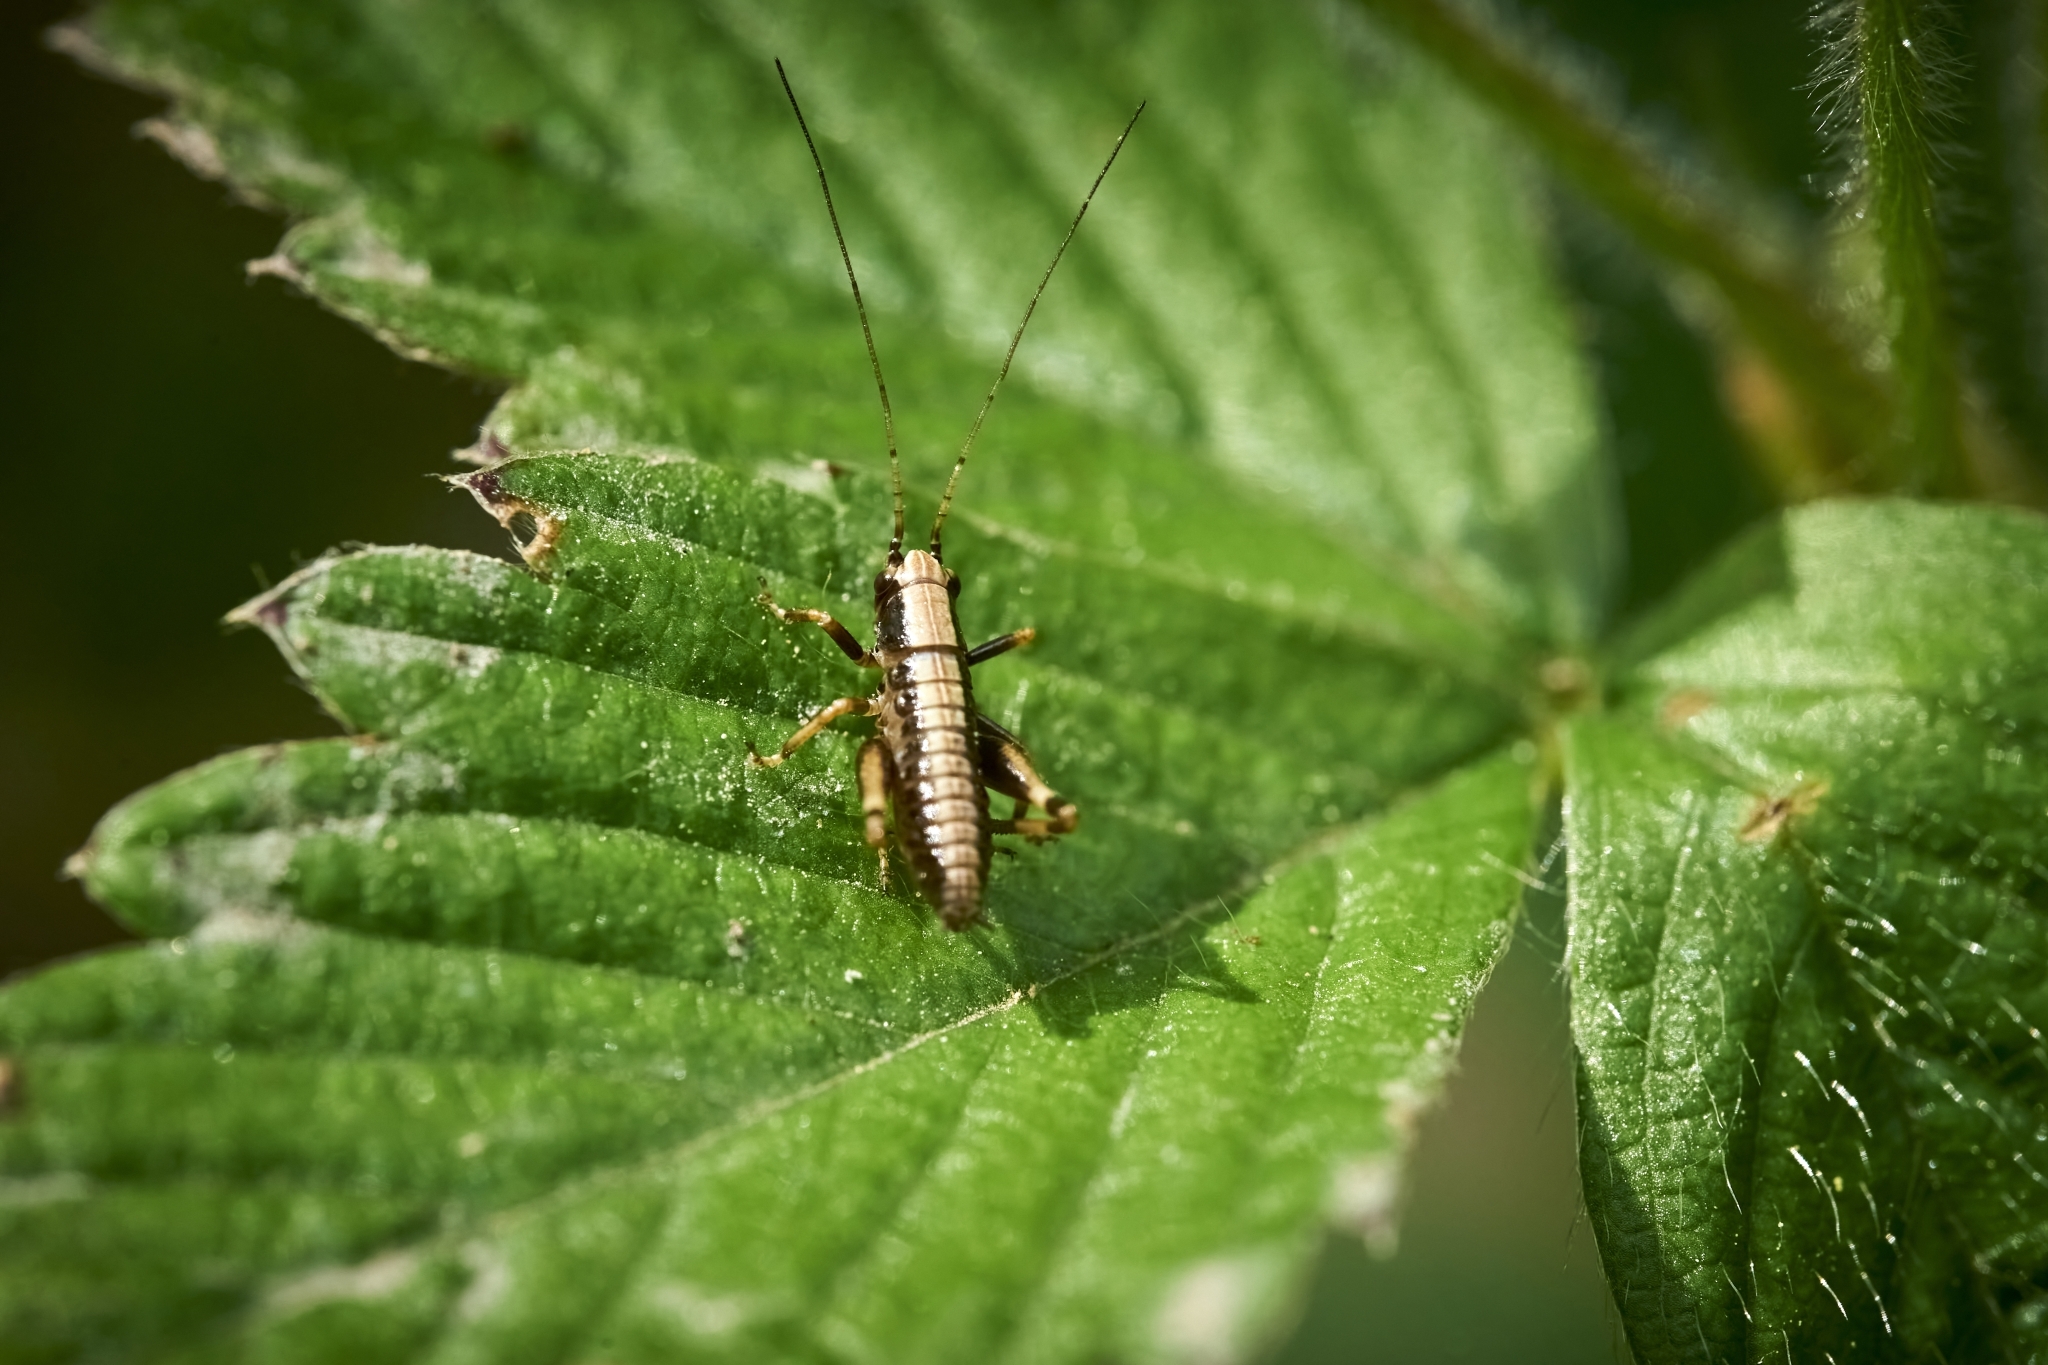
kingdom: Animalia
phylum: Arthropoda
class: Insecta
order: Orthoptera
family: Tettigoniidae
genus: Pholidoptera
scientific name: Pholidoptera griseoaptera
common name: Dark bush-cricket
